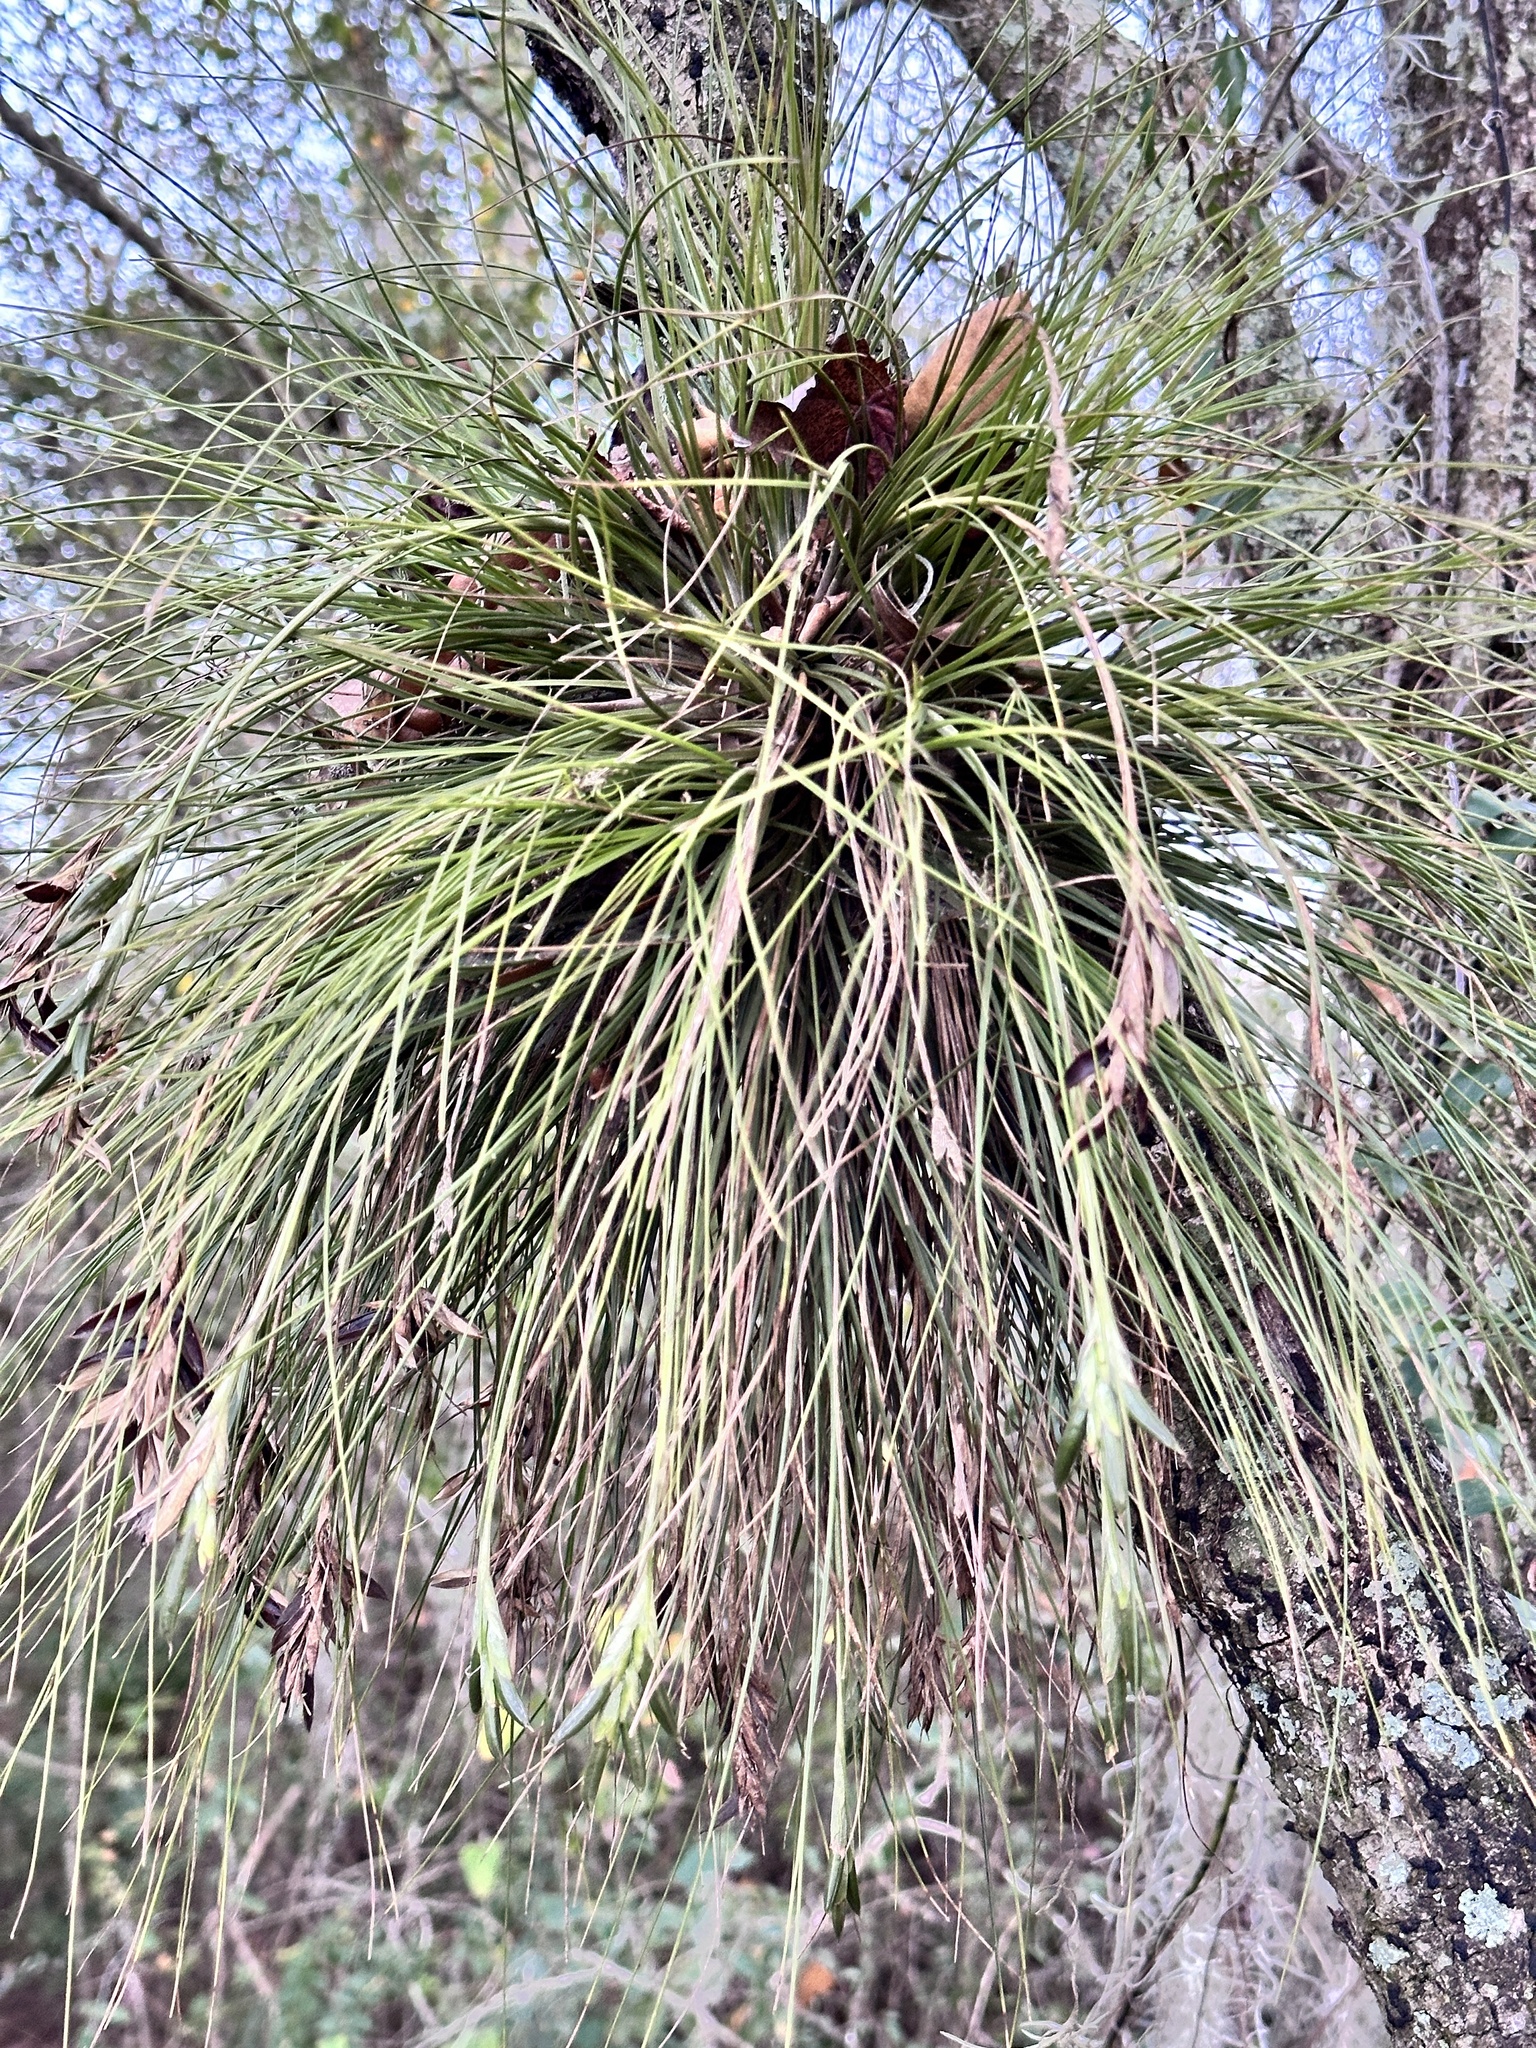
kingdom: Plantae
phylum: Tracheophyta
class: Liliopsida
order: Poales
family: Bromeliaceae
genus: Tillandsia
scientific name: Tillandsia bartramii
